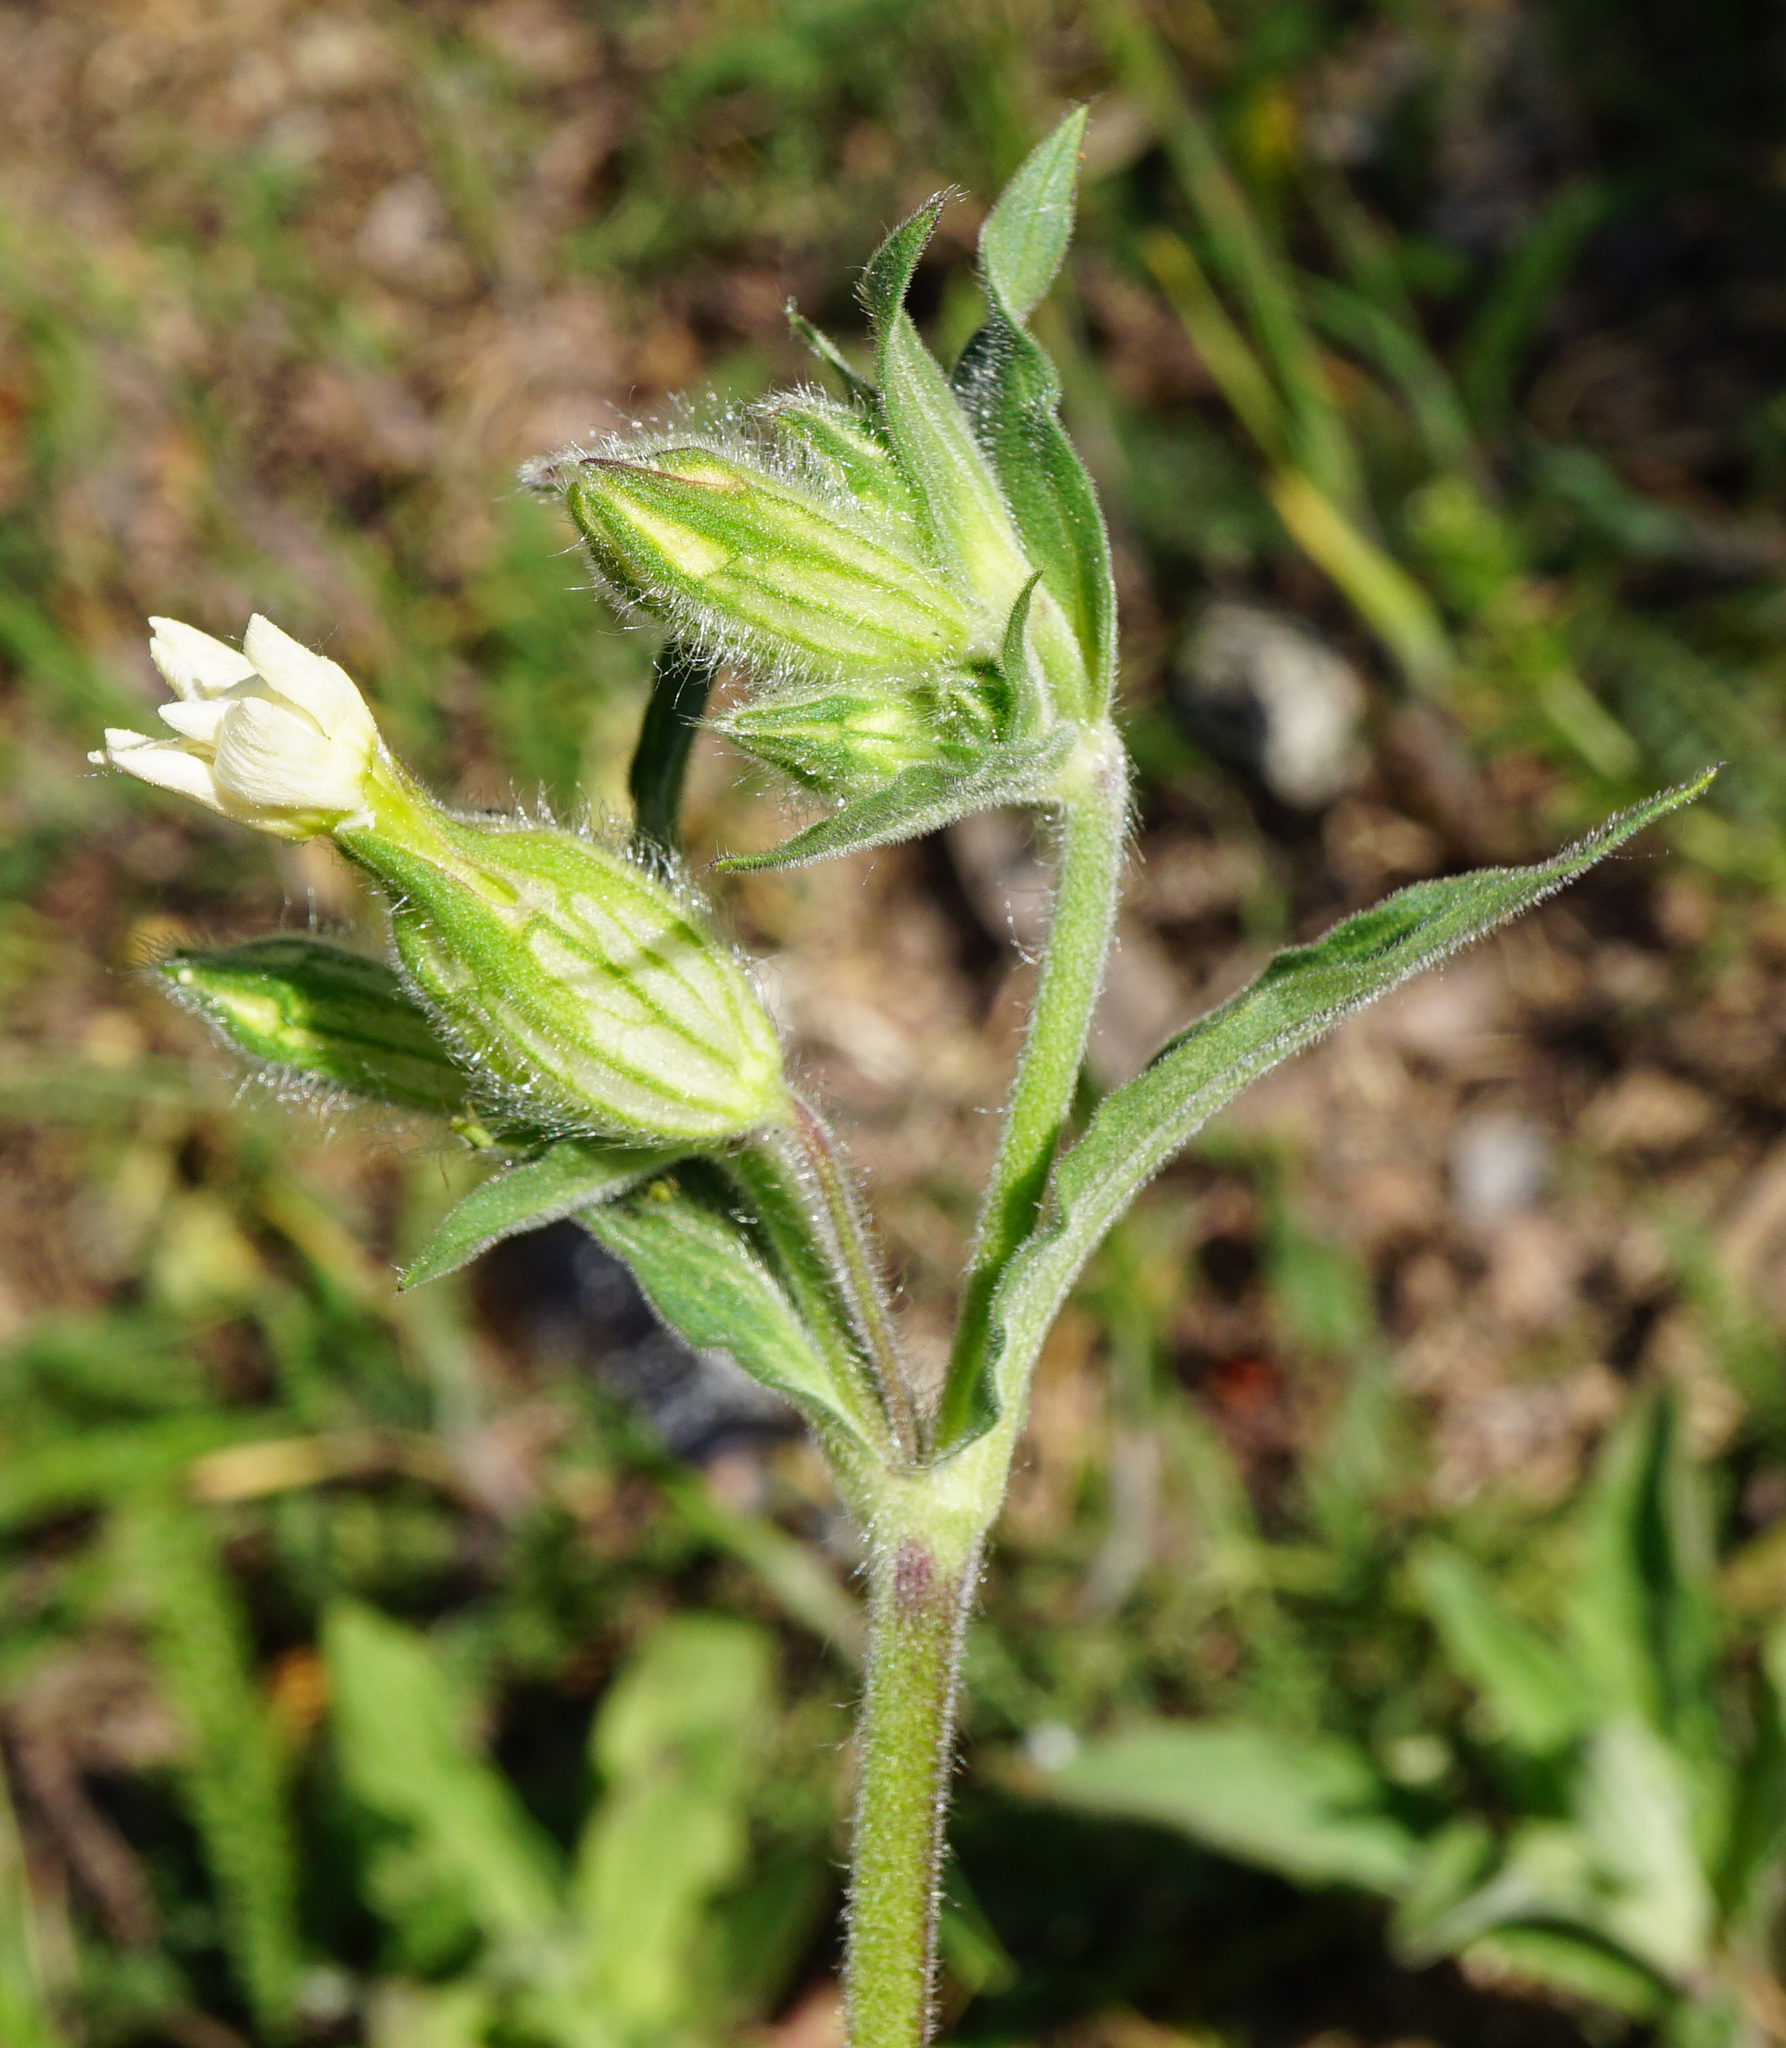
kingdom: Plantae
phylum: Tracheophyta
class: Magnoliopsida
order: Caryophyllales
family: Caryophyllaceae
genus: Silene
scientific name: Silene latifolia
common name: White campion
